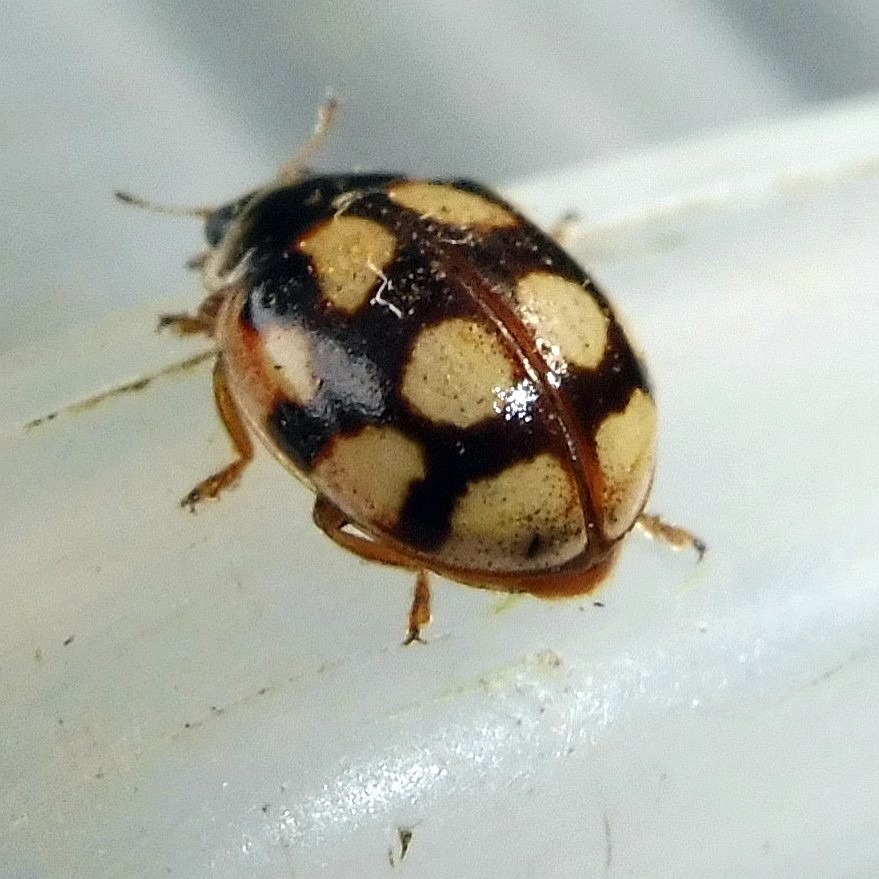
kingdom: Animalia
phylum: Arthropoda
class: Insecta
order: Coleoptera
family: Coccinellidae
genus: Adalia
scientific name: Adalia decempunctata
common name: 10-spot ladybird
